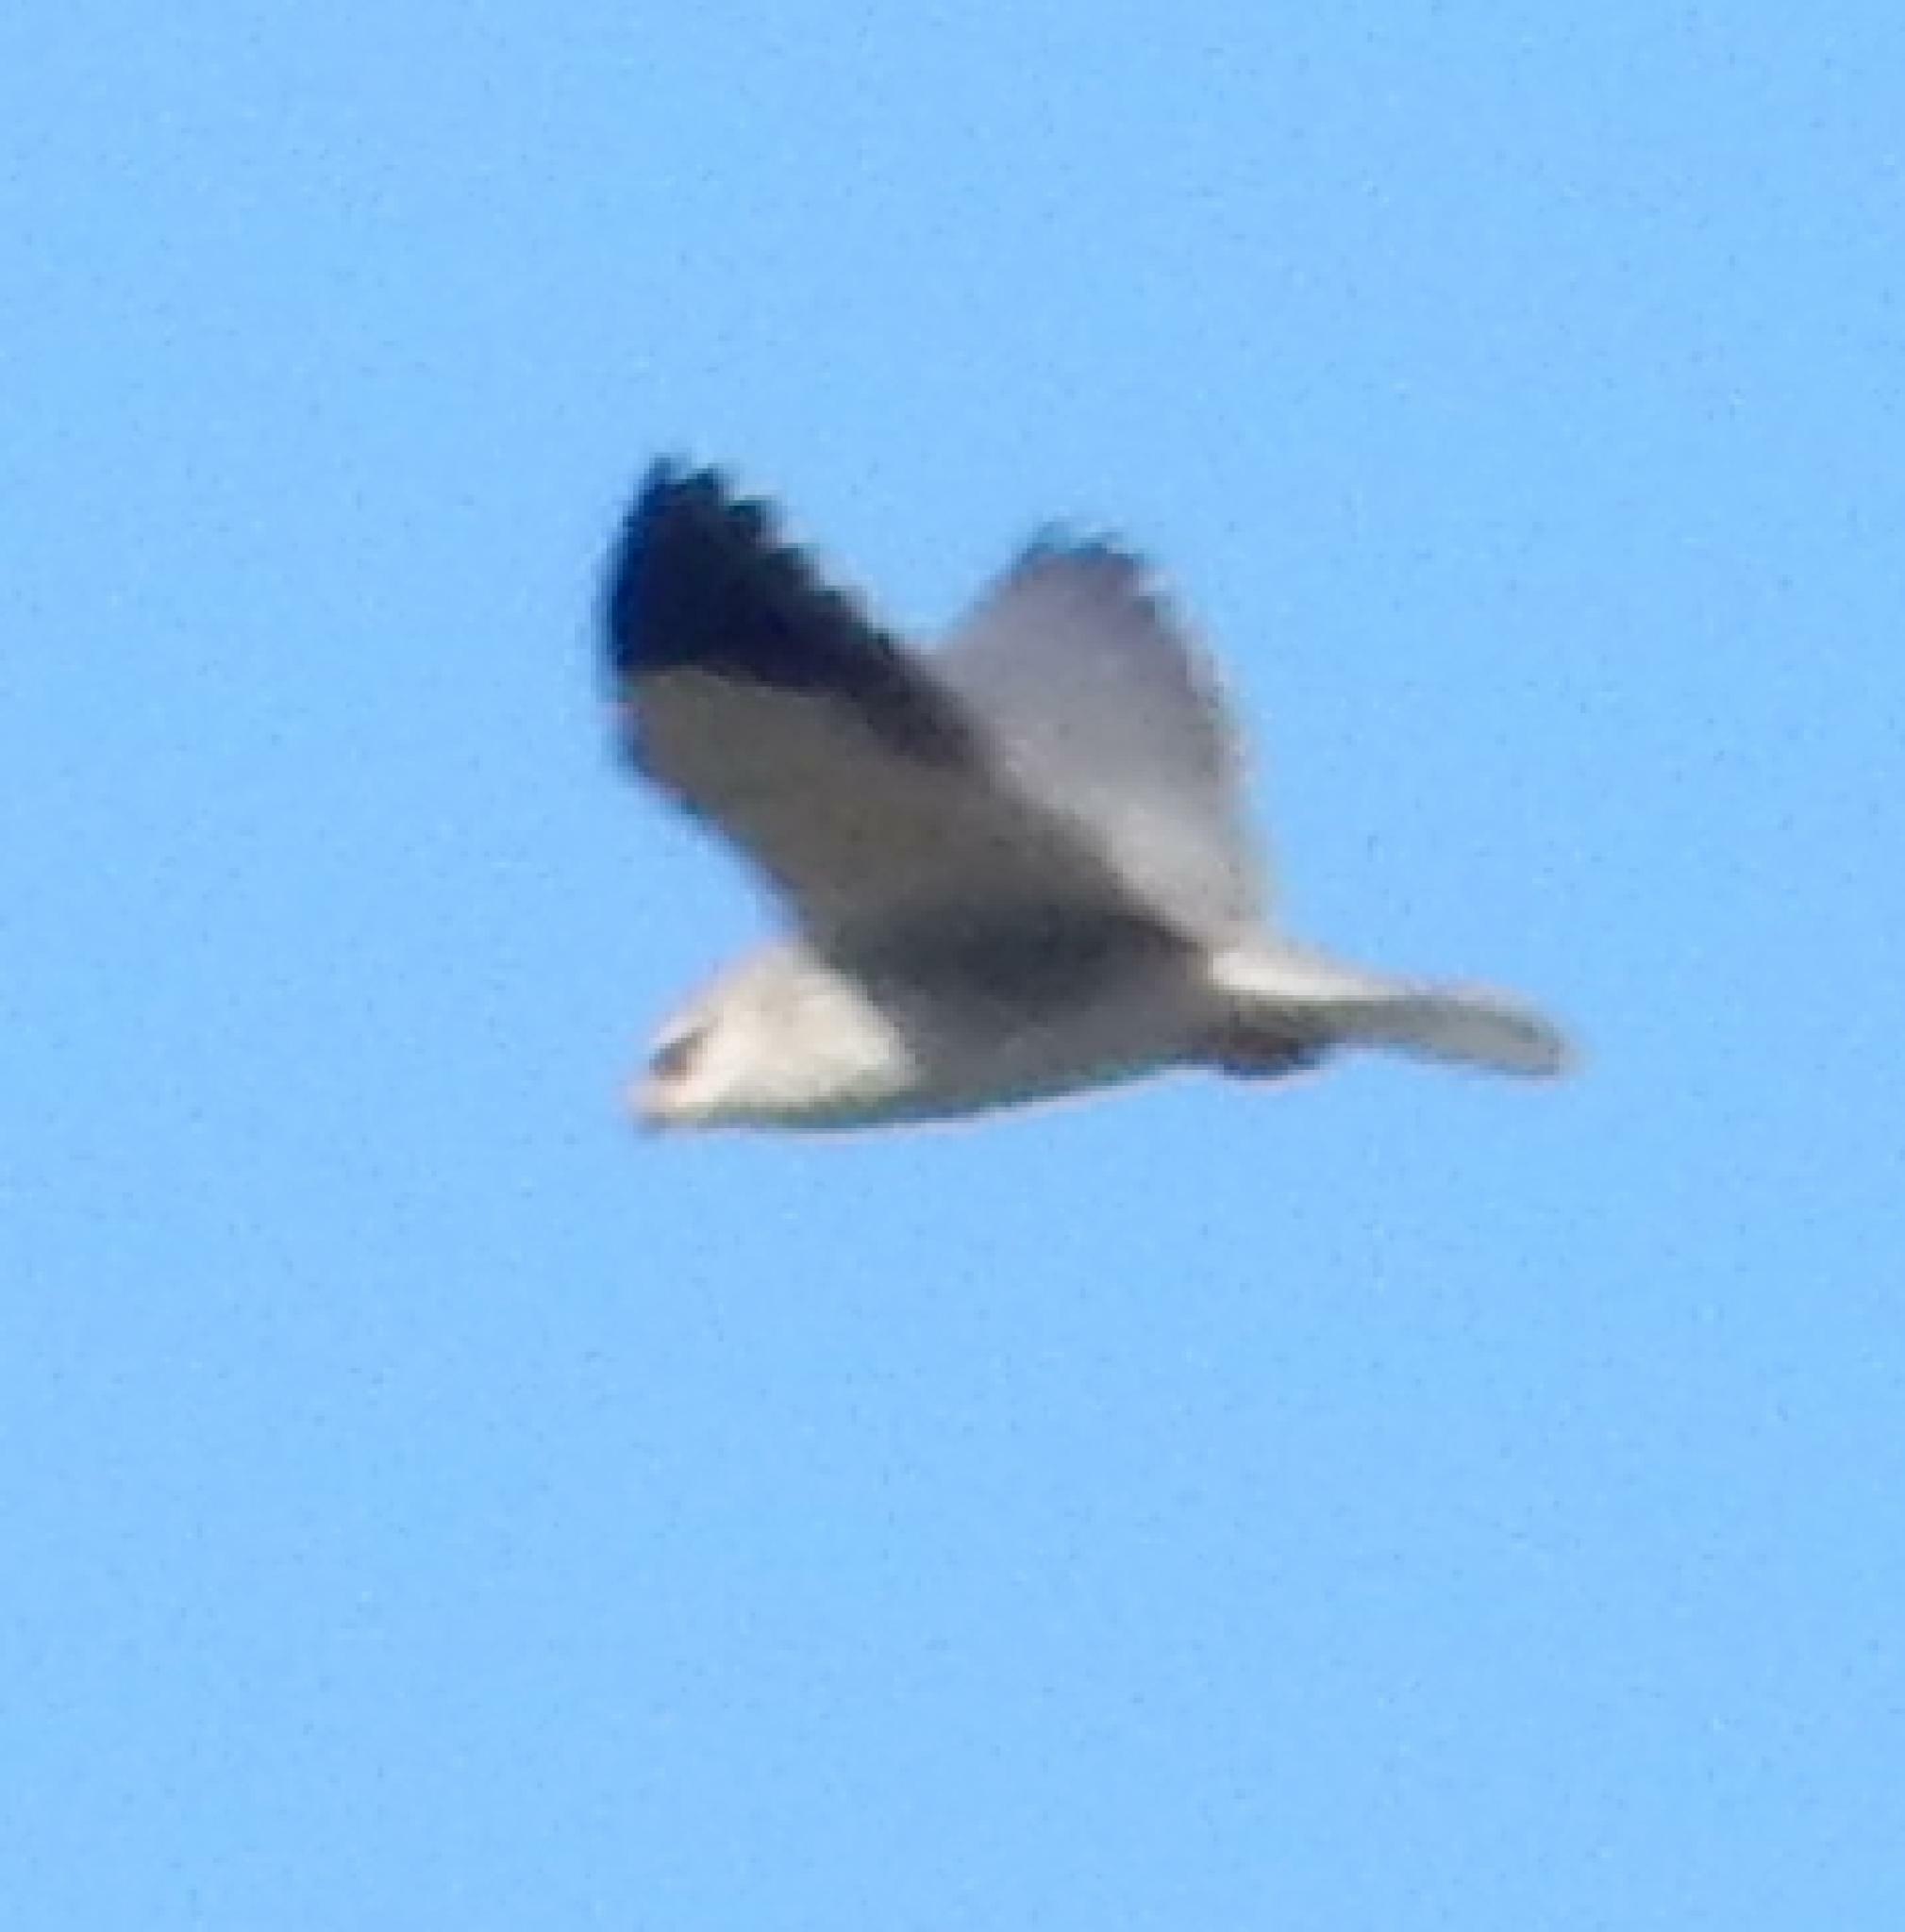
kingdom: Animalia
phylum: Chordata
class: Aves
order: Accipitriformes
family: Accipitridae
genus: Elanus
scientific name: Elanus caeruleus
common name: Black-winged kite
